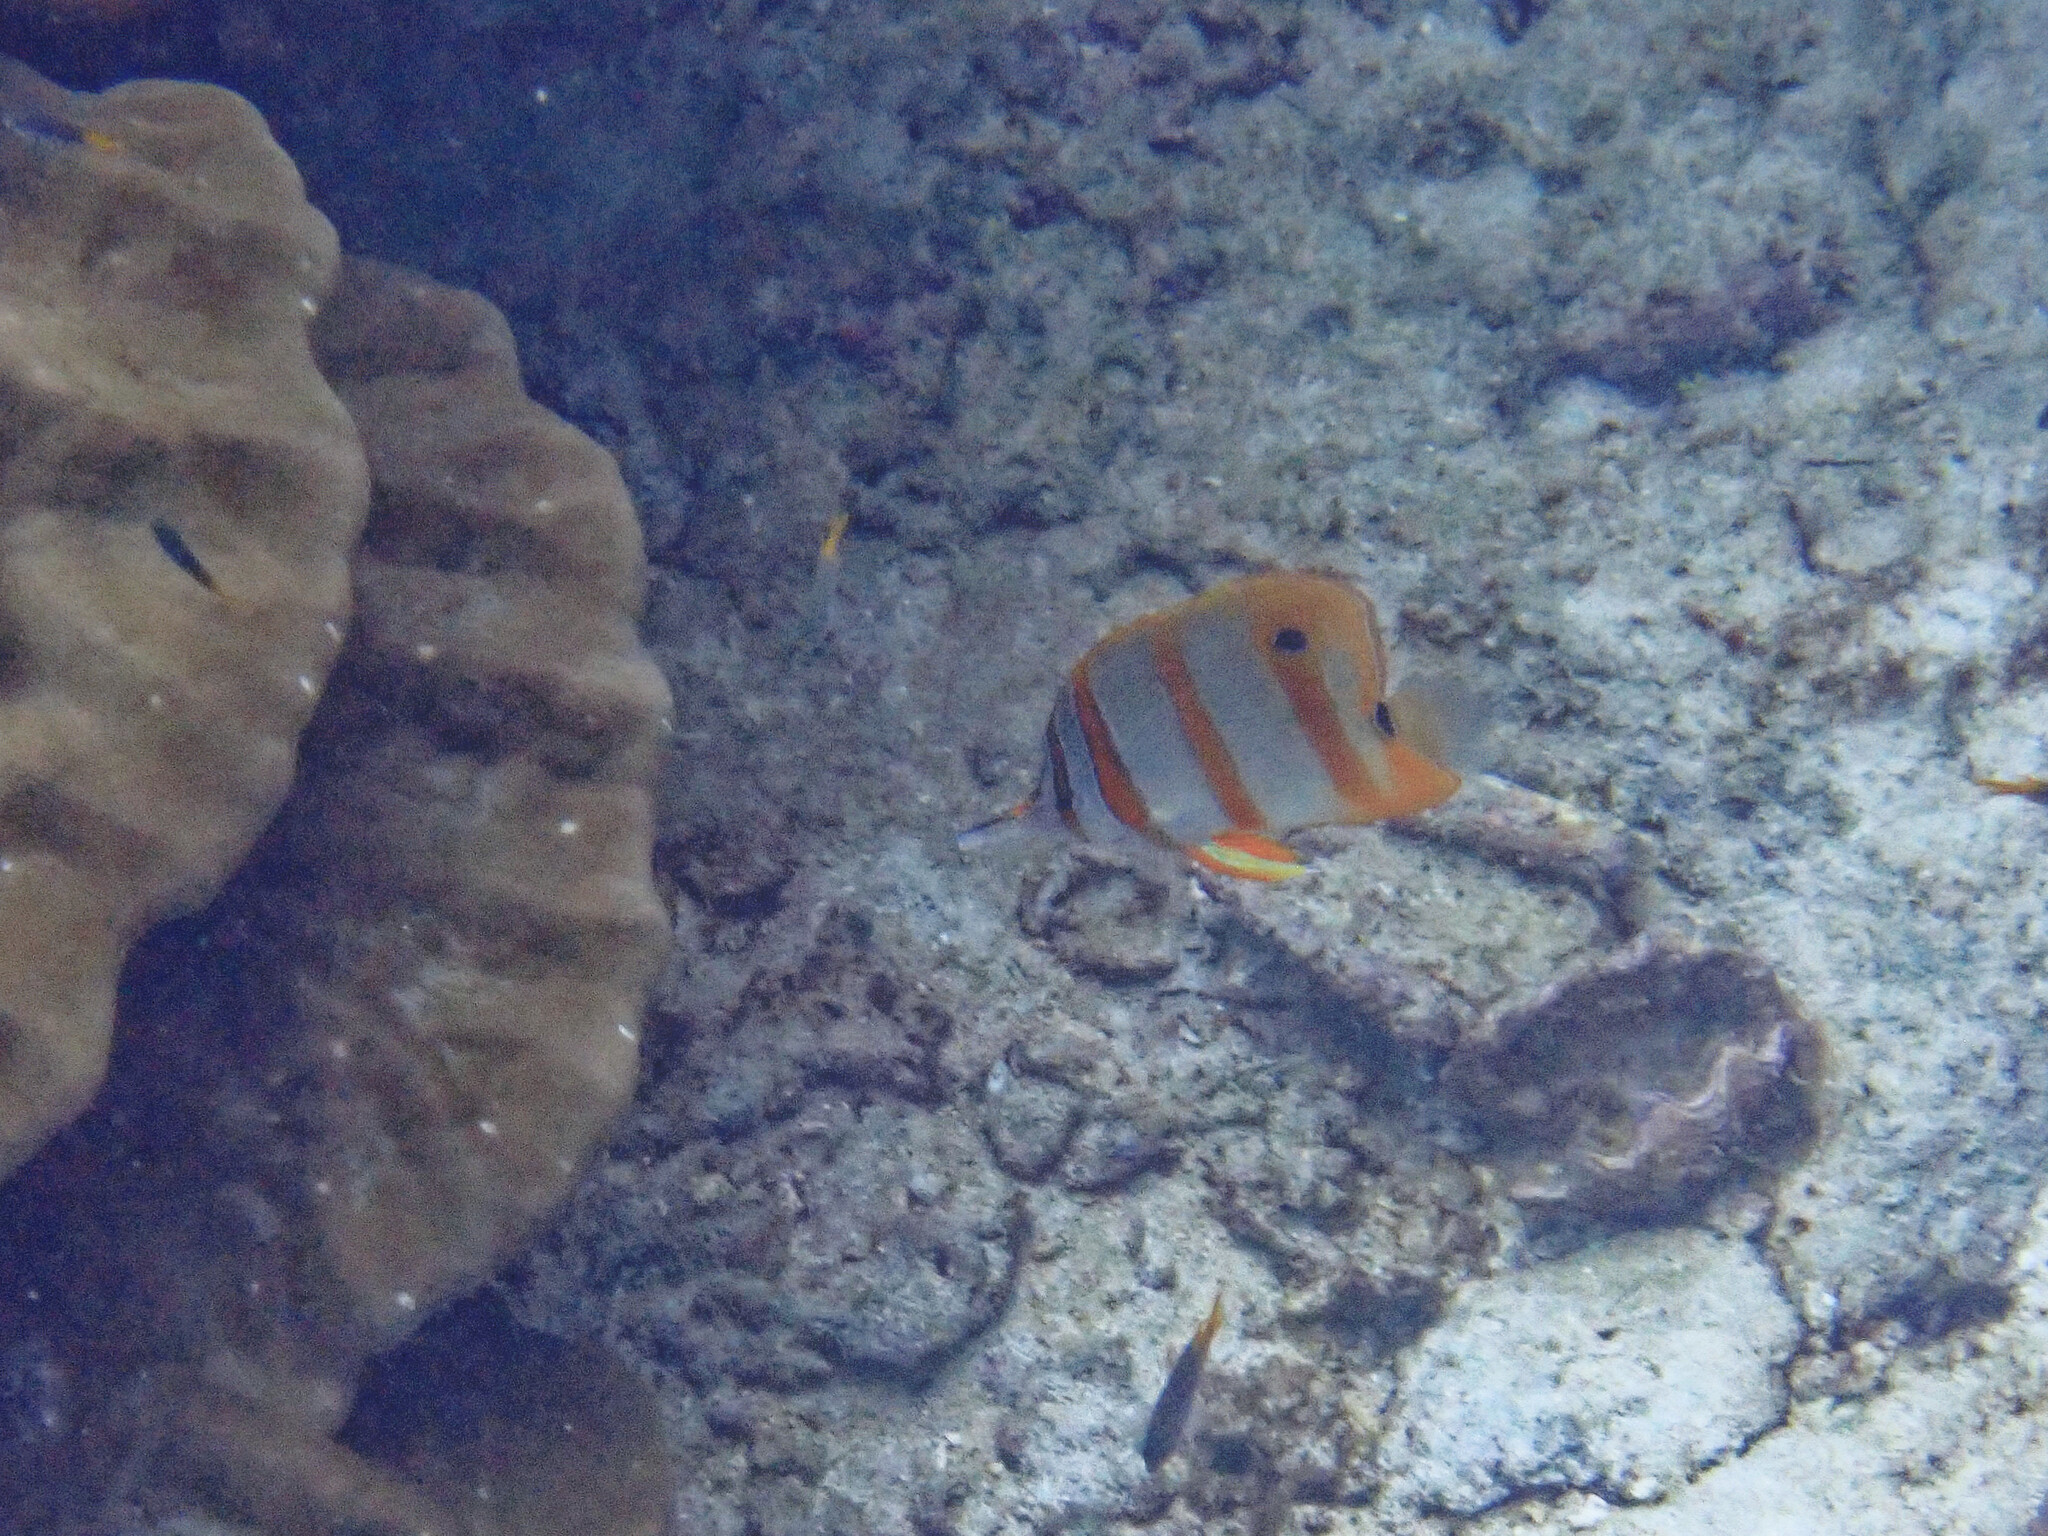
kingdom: Animalia
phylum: Chordata
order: Perciformes
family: Chaetodontidae
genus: Chelmon
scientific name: Chelmon rostratus
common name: Beaked butterflyfish
